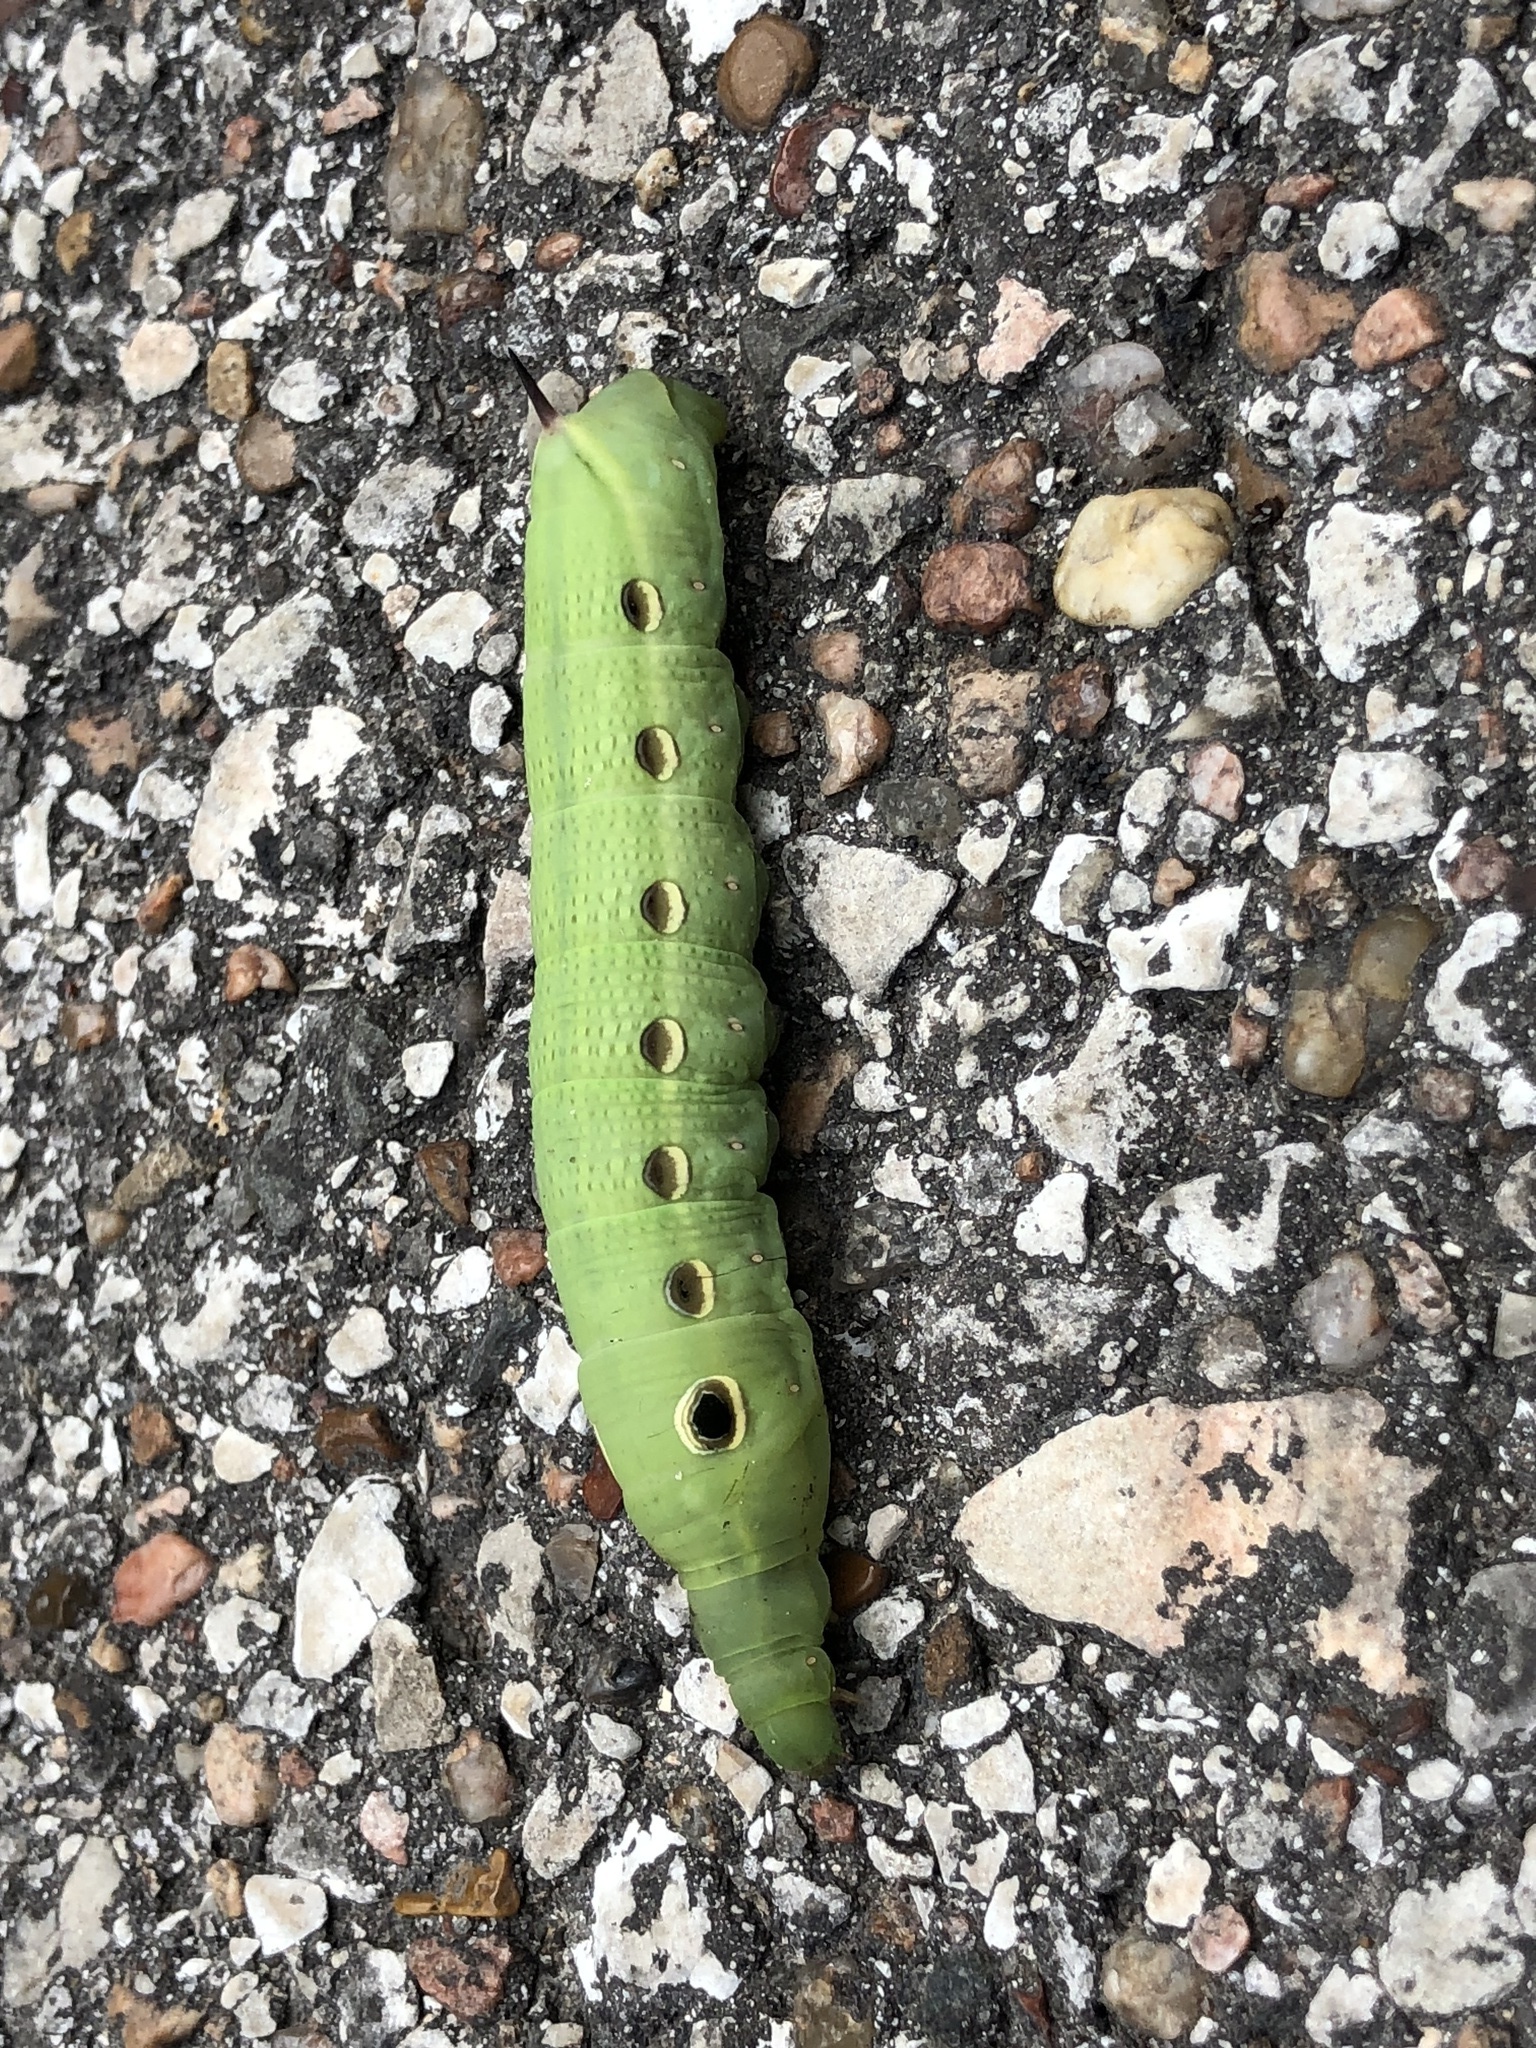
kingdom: Animalia
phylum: Arthropoda
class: Insecta
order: Lepidoptera
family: Sphingidae
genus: Xylophanes
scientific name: Xylophanes tersa
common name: Tersa sphinx
